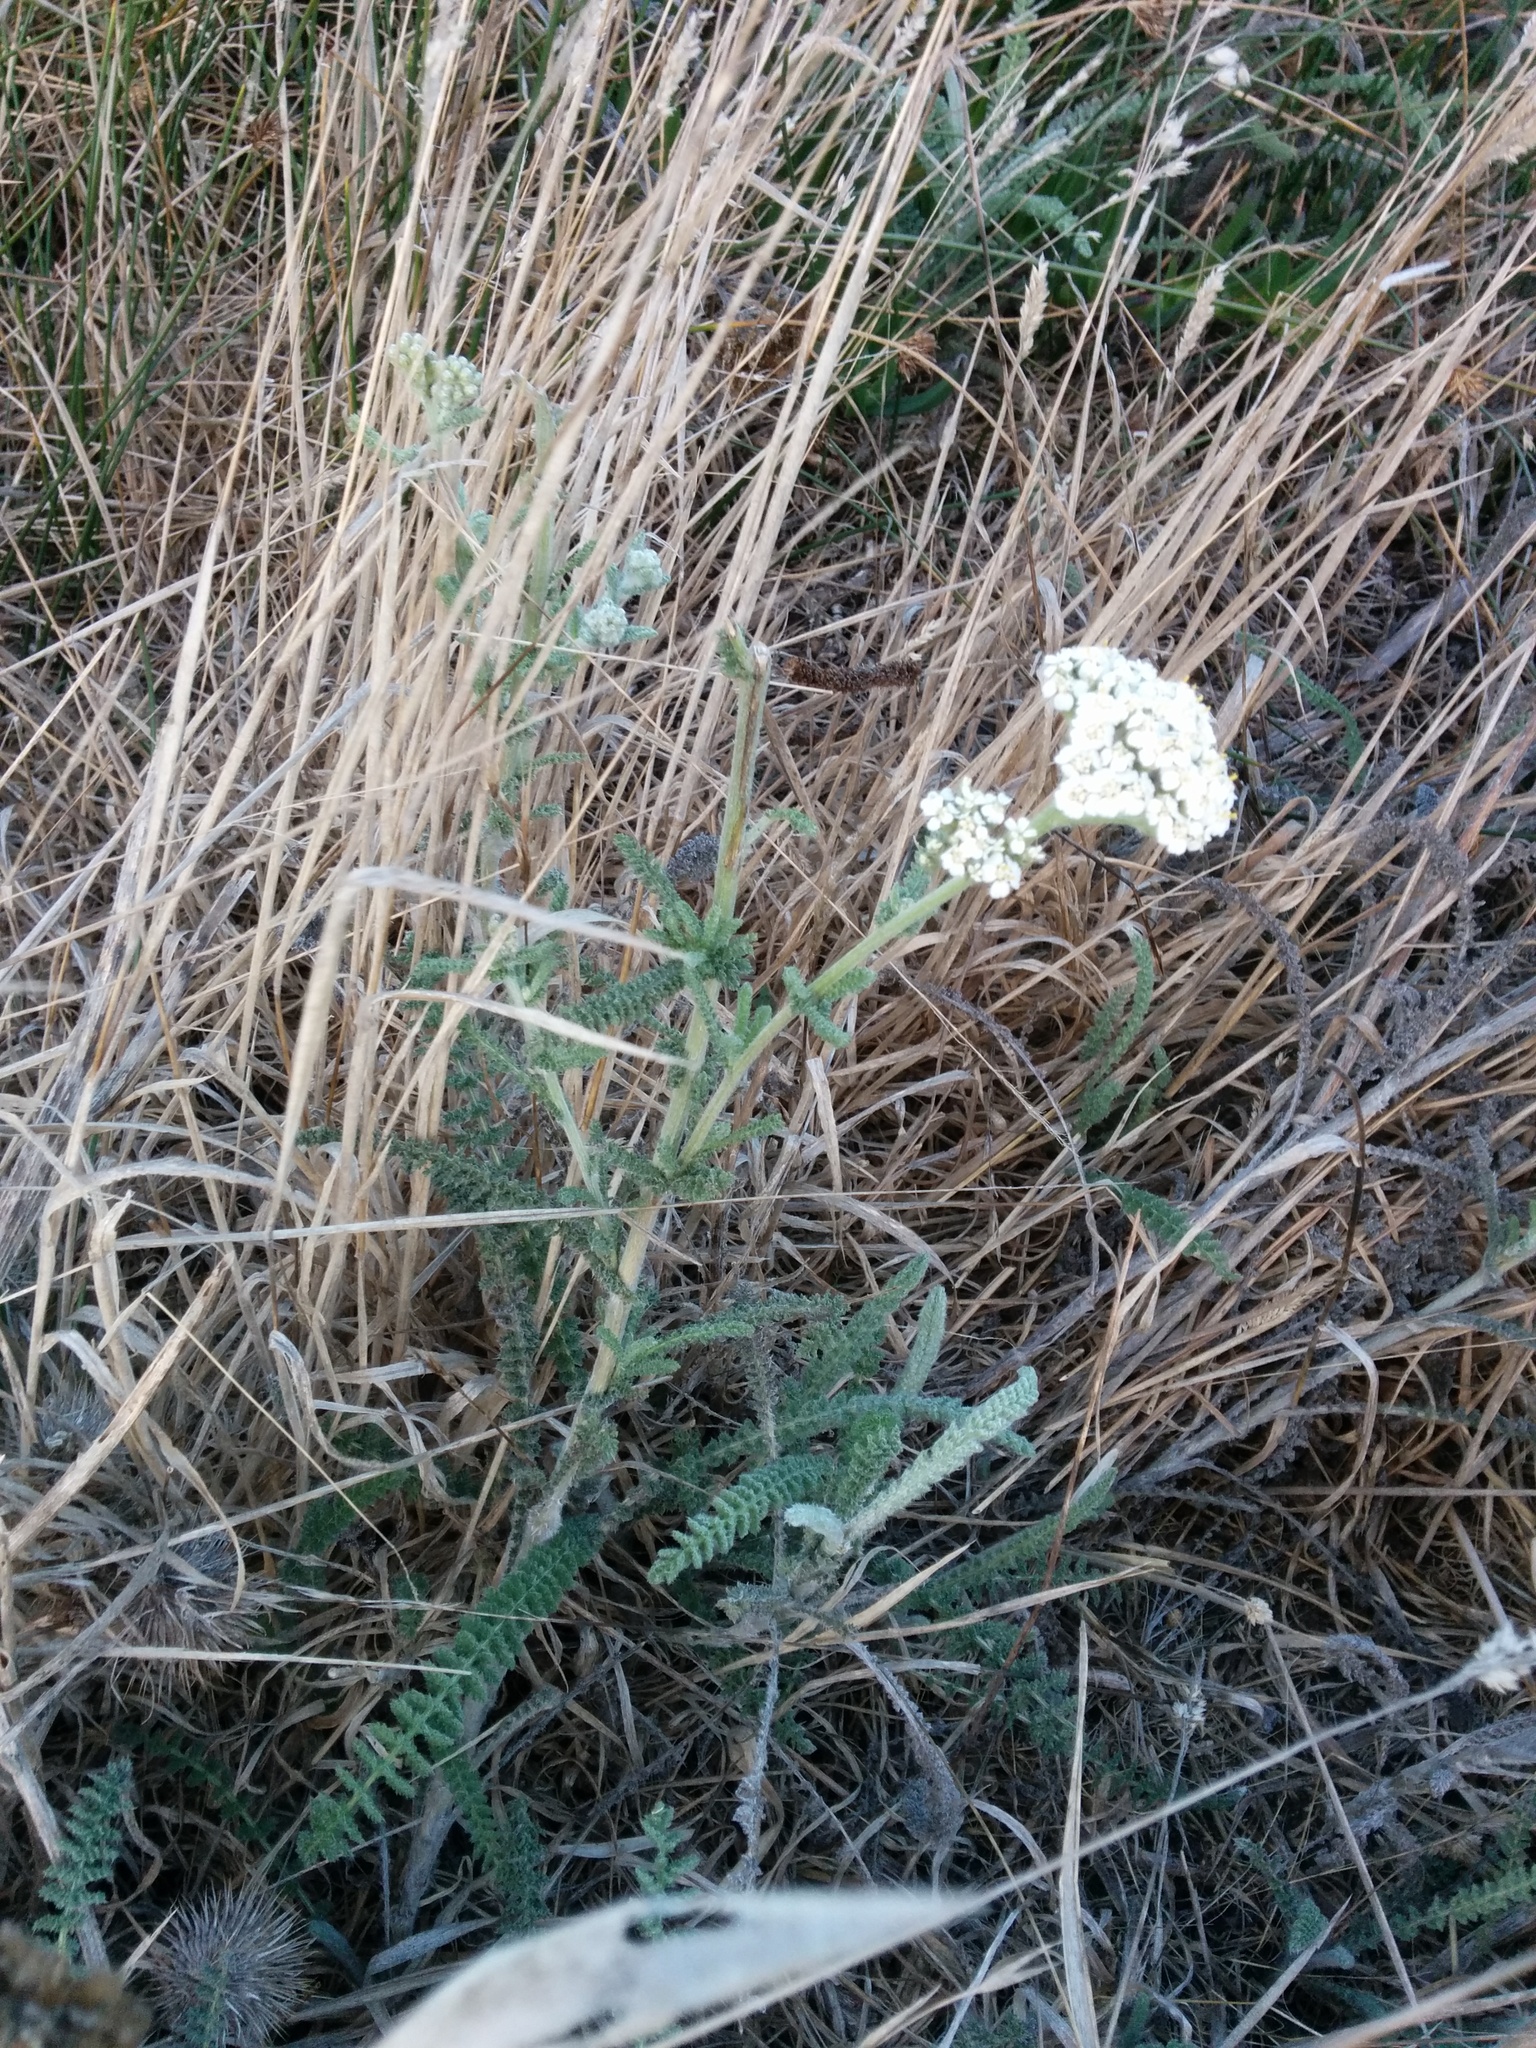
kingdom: Plantae
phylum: Tracheophyta
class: Magnoliopsida
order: Asterales
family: Asteraceae
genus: Achillea
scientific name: Achillea millefolium
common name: Yarrow
